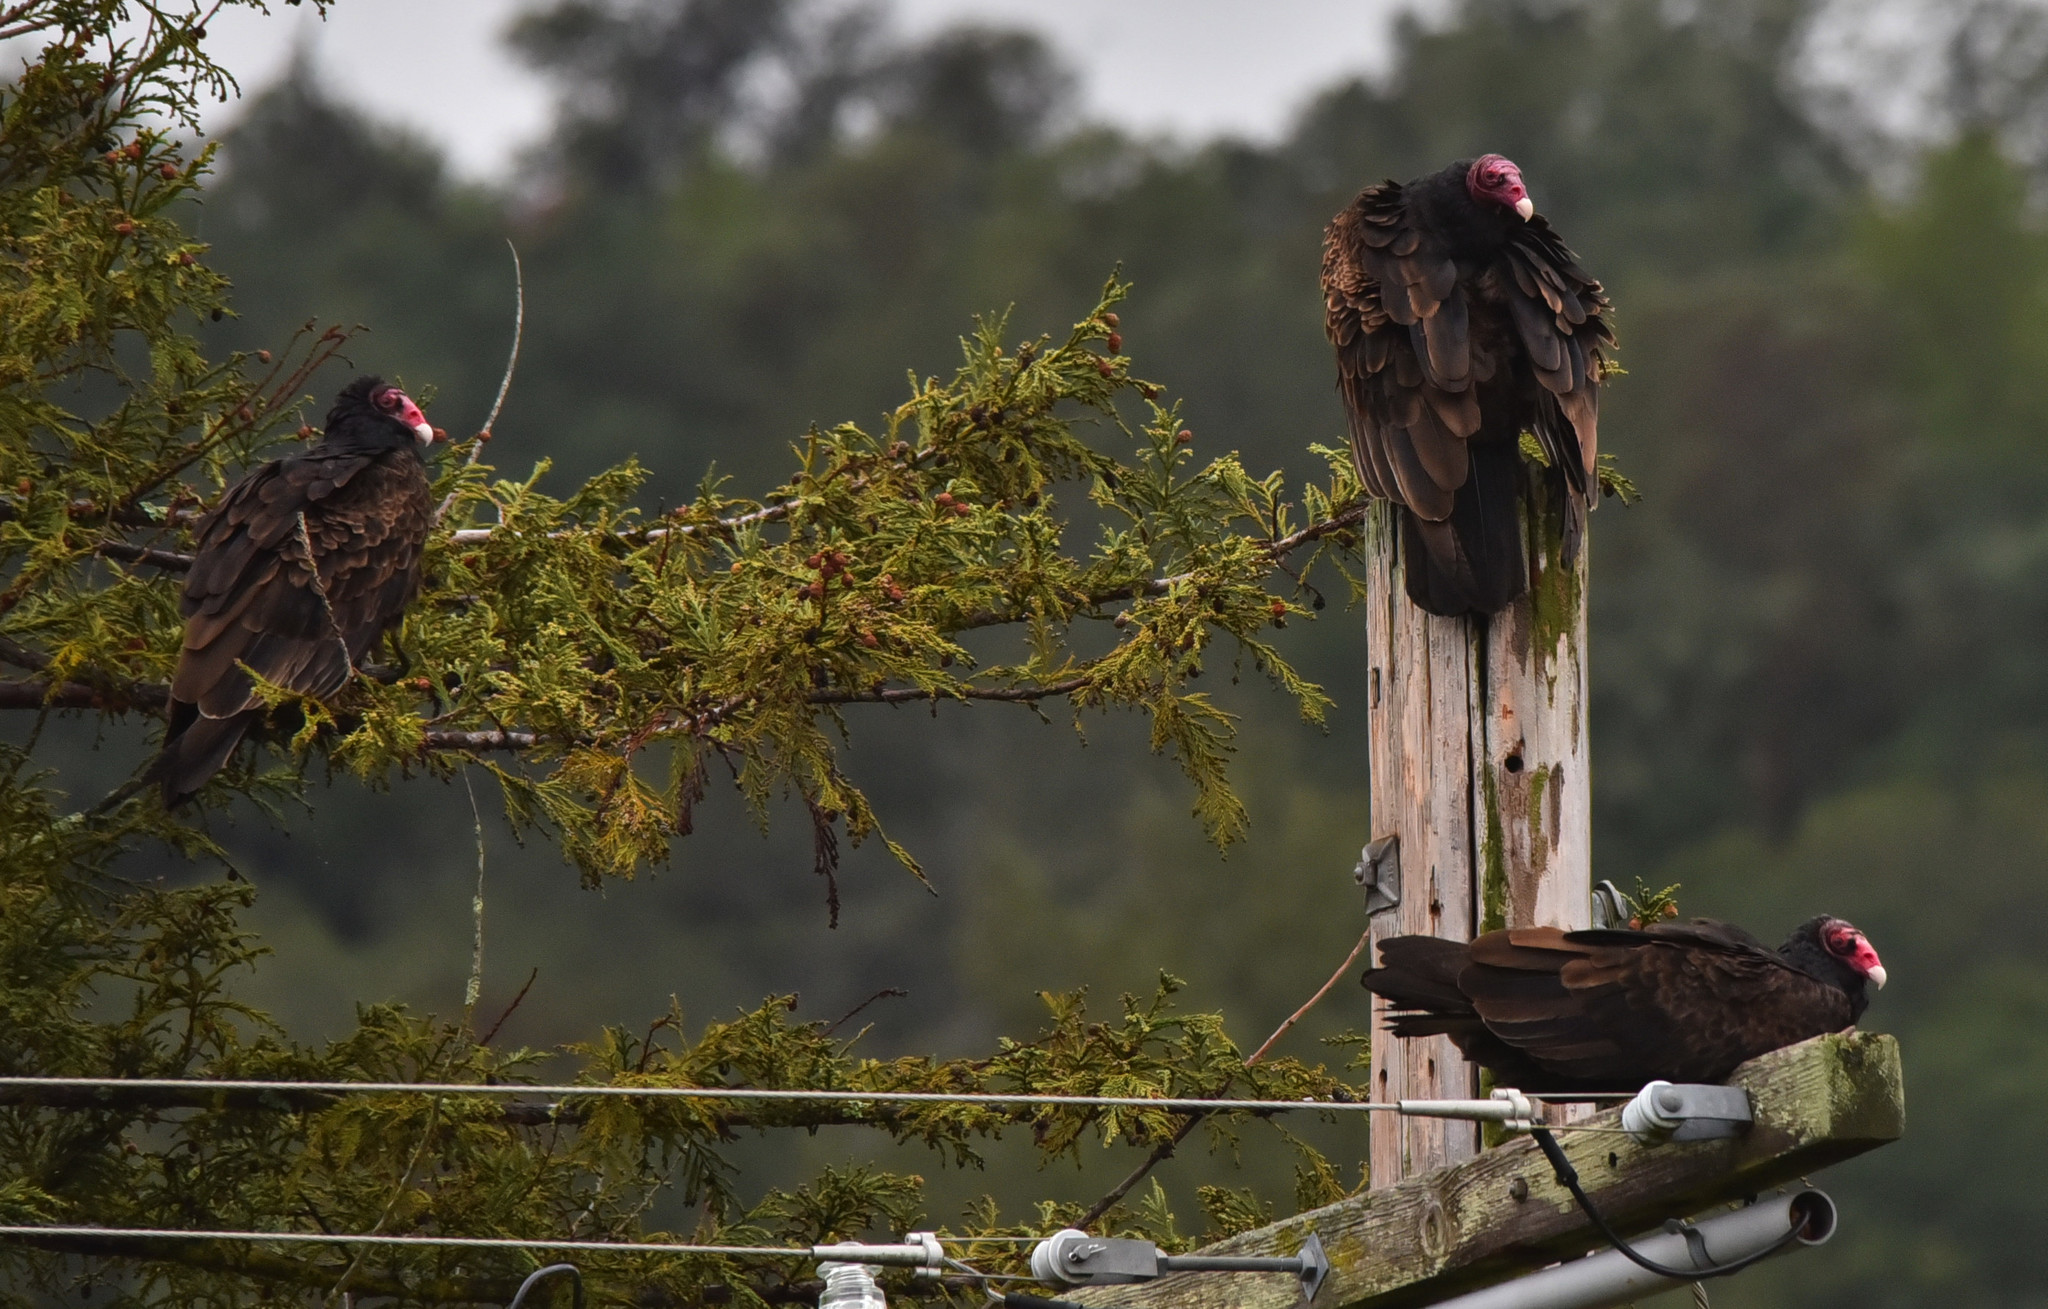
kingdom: Animalia
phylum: Chordata
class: Aves
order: Accipitriformes
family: Cathartidae
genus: Cathartes
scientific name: Cathartes aura
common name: Turkey vulture
